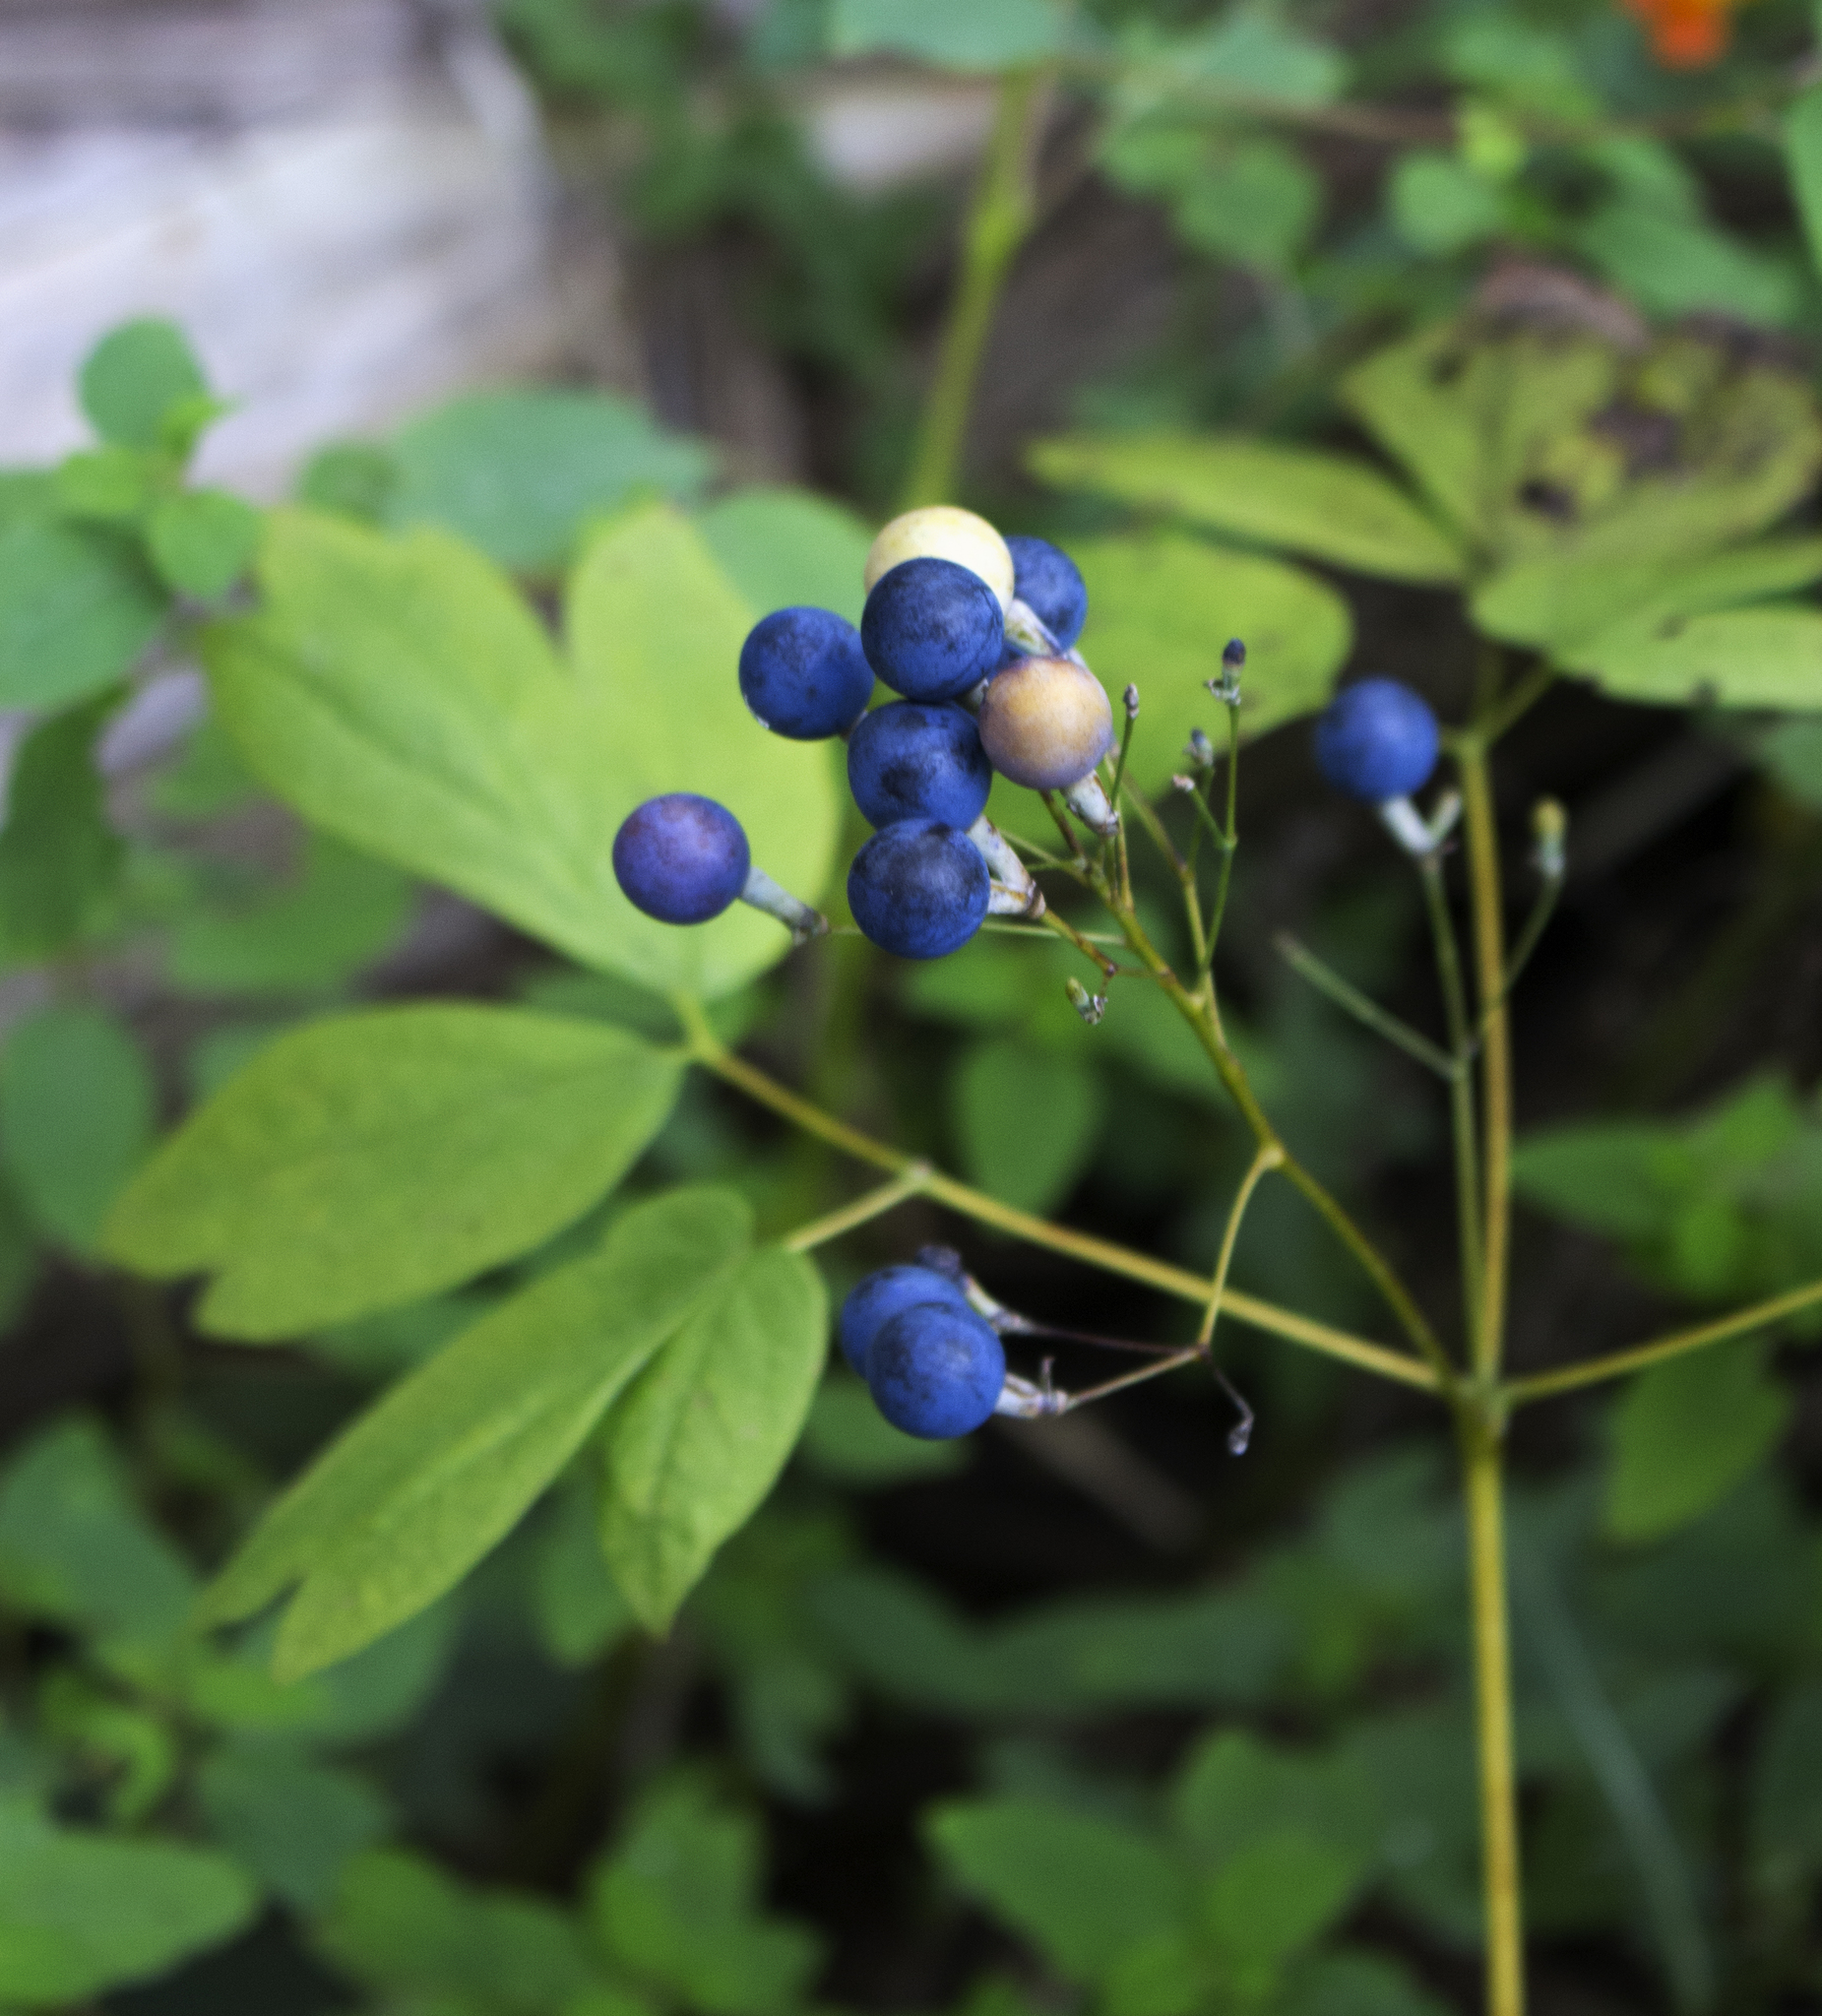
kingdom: Plantae
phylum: Tracheophyta
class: Magnoliopsida
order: Ranunculales
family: Berberidaceae
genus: Caulophyllum
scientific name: Caulophyllum thalictroides
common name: Blue cohosh
